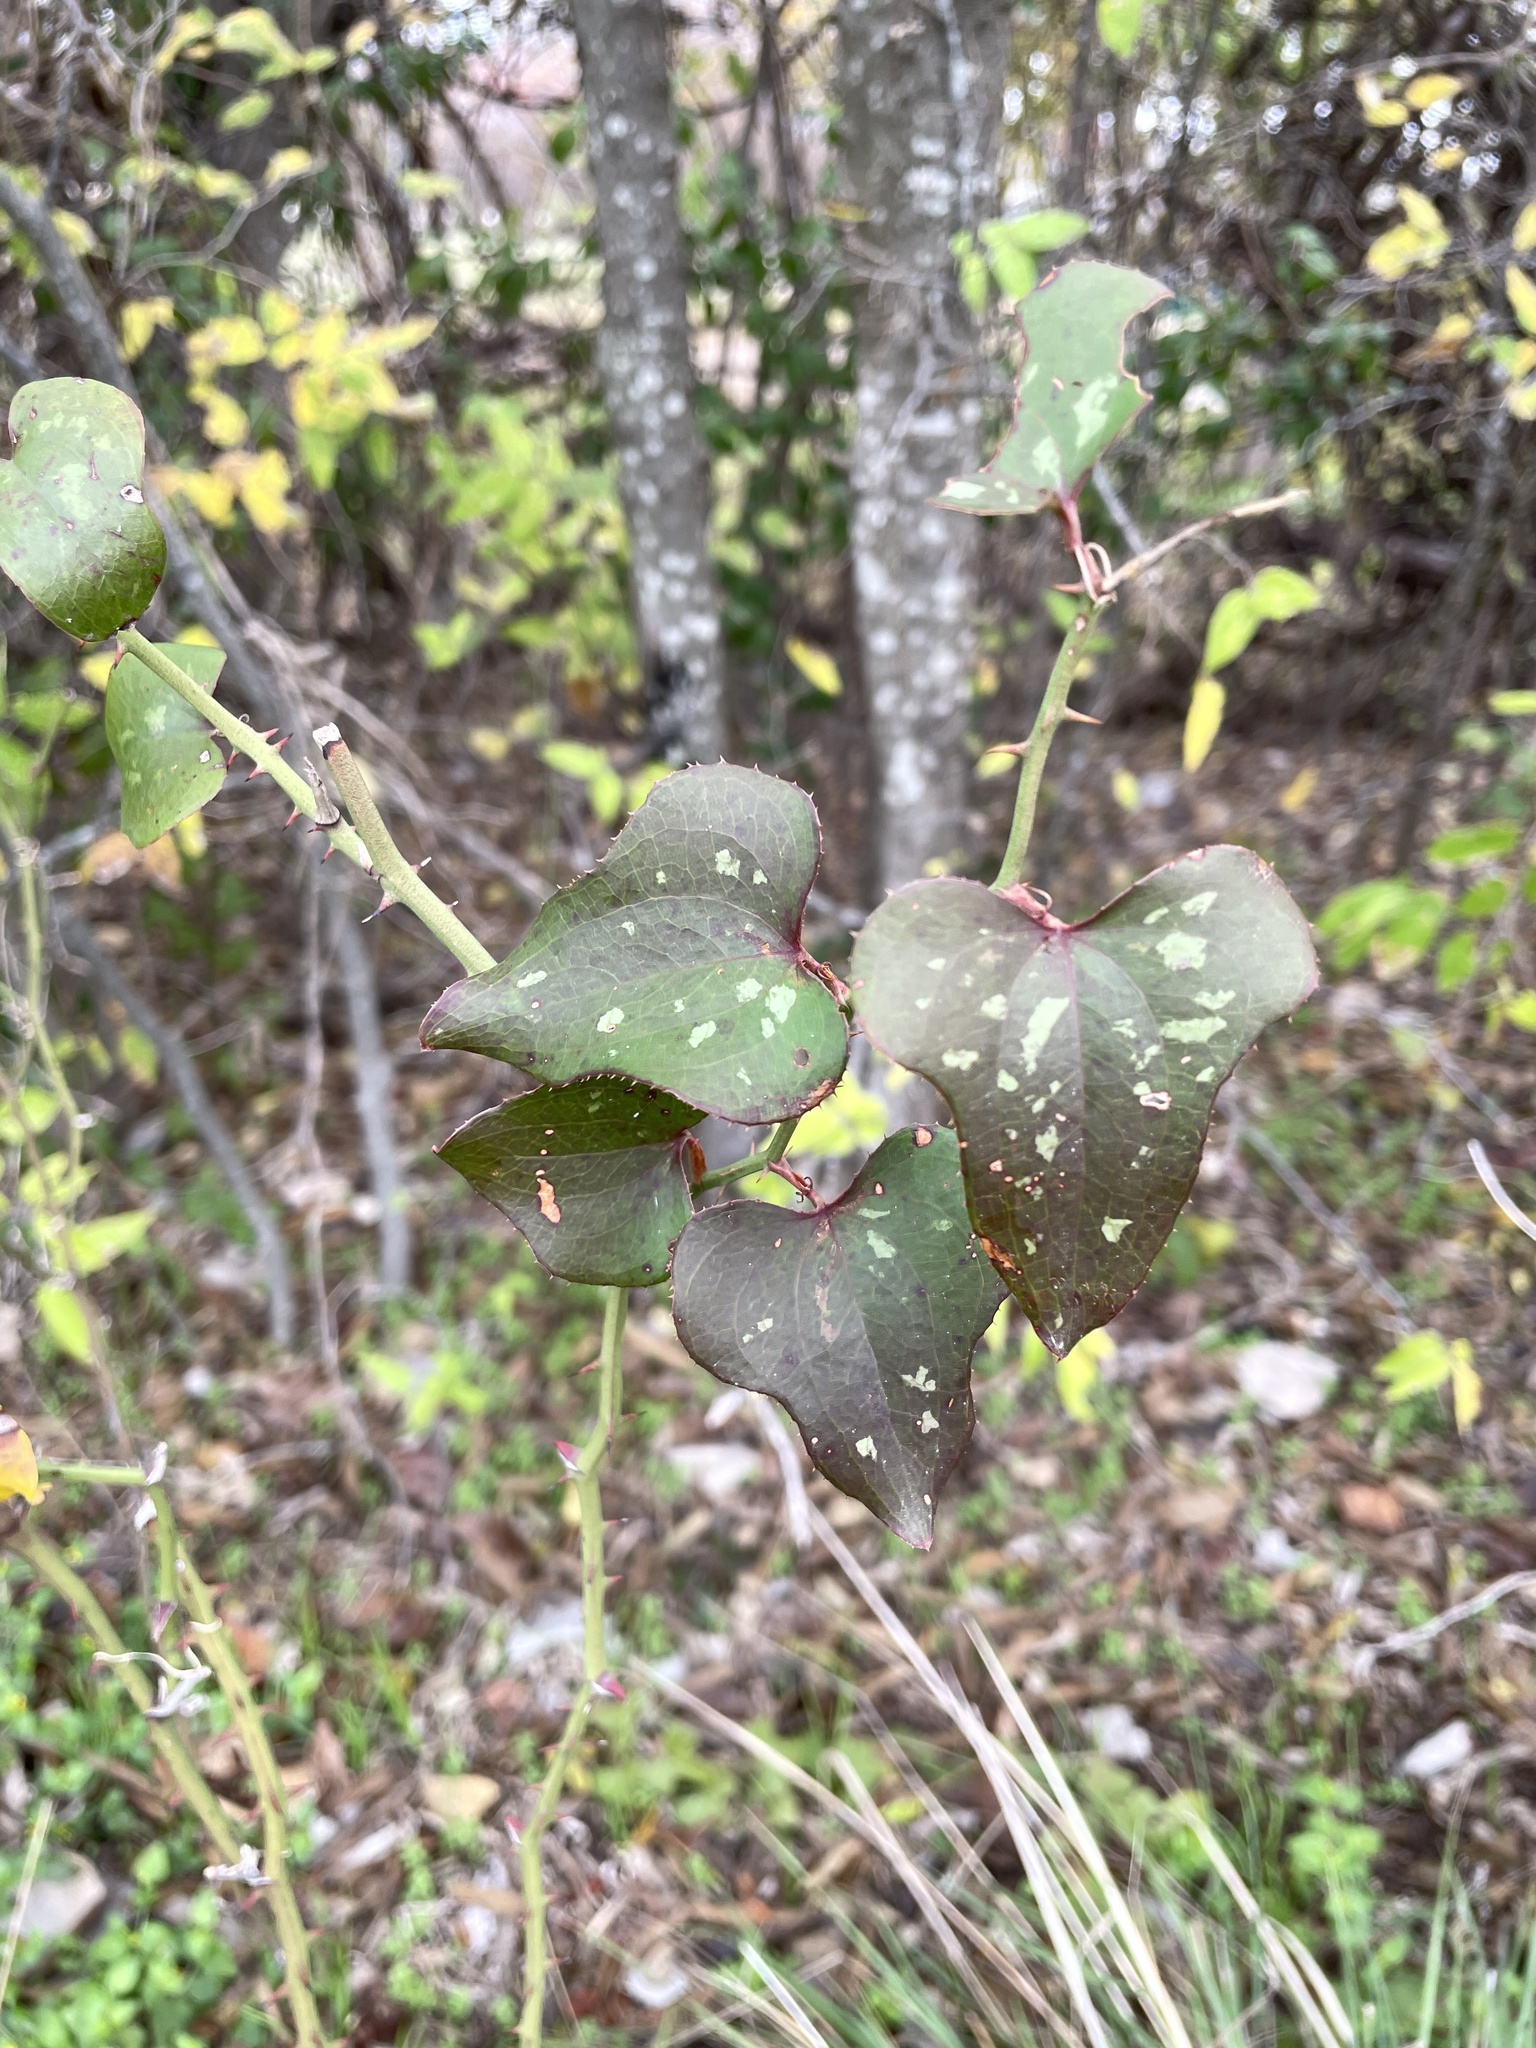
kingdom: Plantae
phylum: Tracheophyta
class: Liliopsida
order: Liliales
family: Smilacaceae
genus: Smilax
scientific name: Smilax bona-nox
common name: Catbrier
